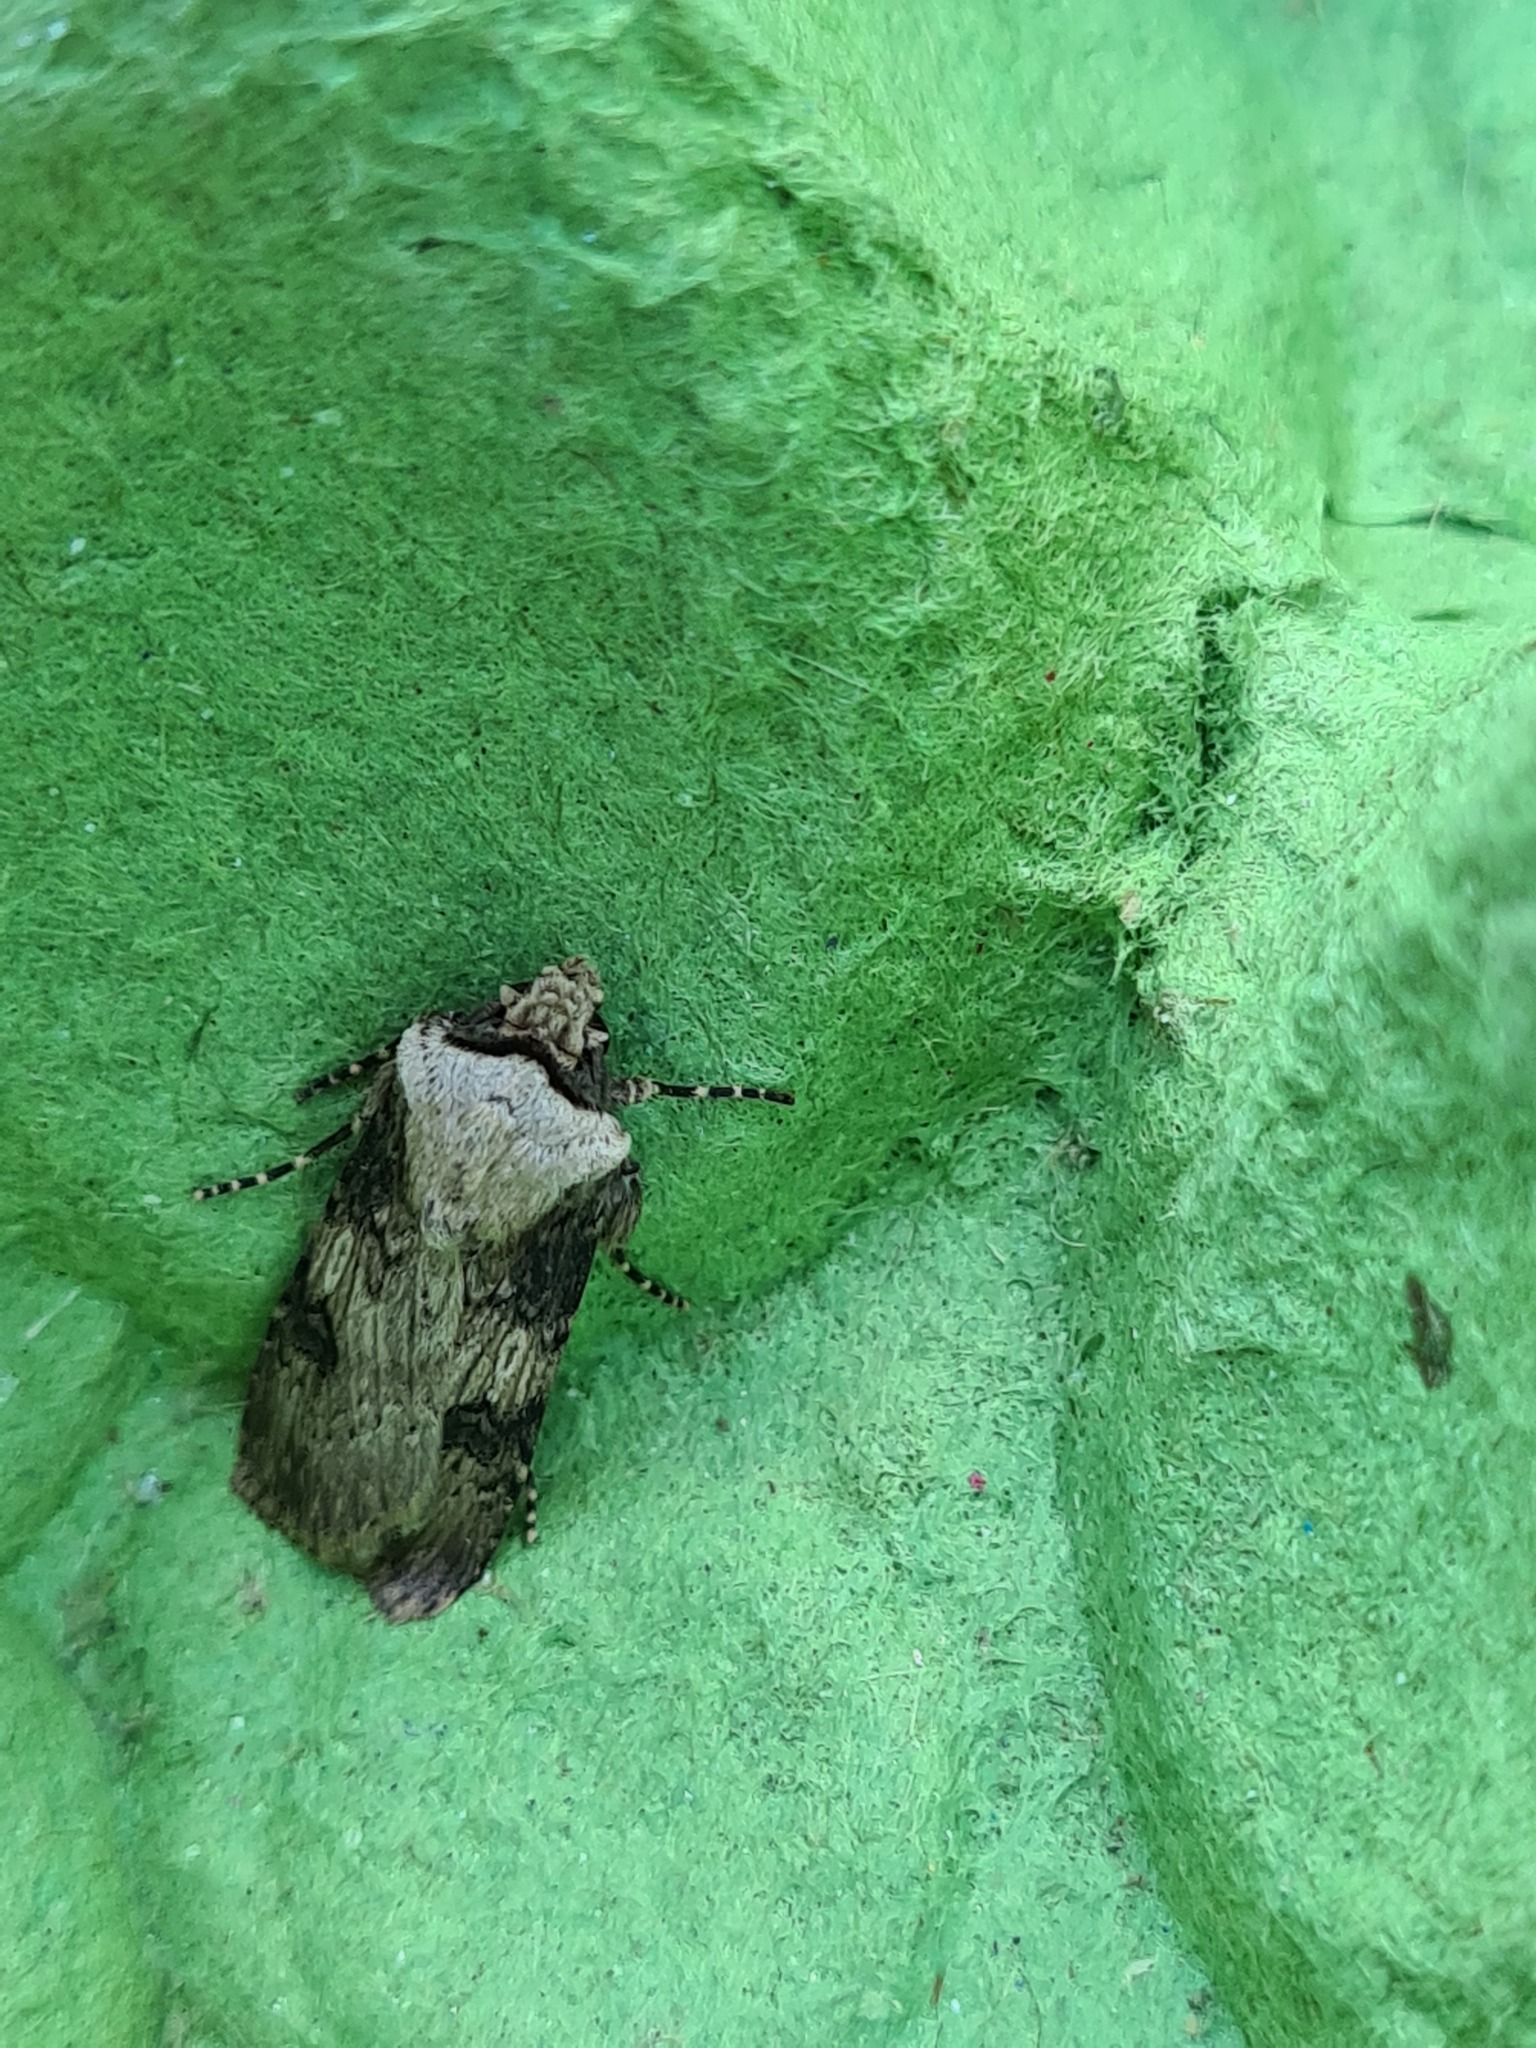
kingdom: Animalia
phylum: Arthropoda
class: Insecta
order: Lepidoptera
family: Noctuidae
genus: Agrotis
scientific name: Agrotis puta
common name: Shuttle-shaped dart
